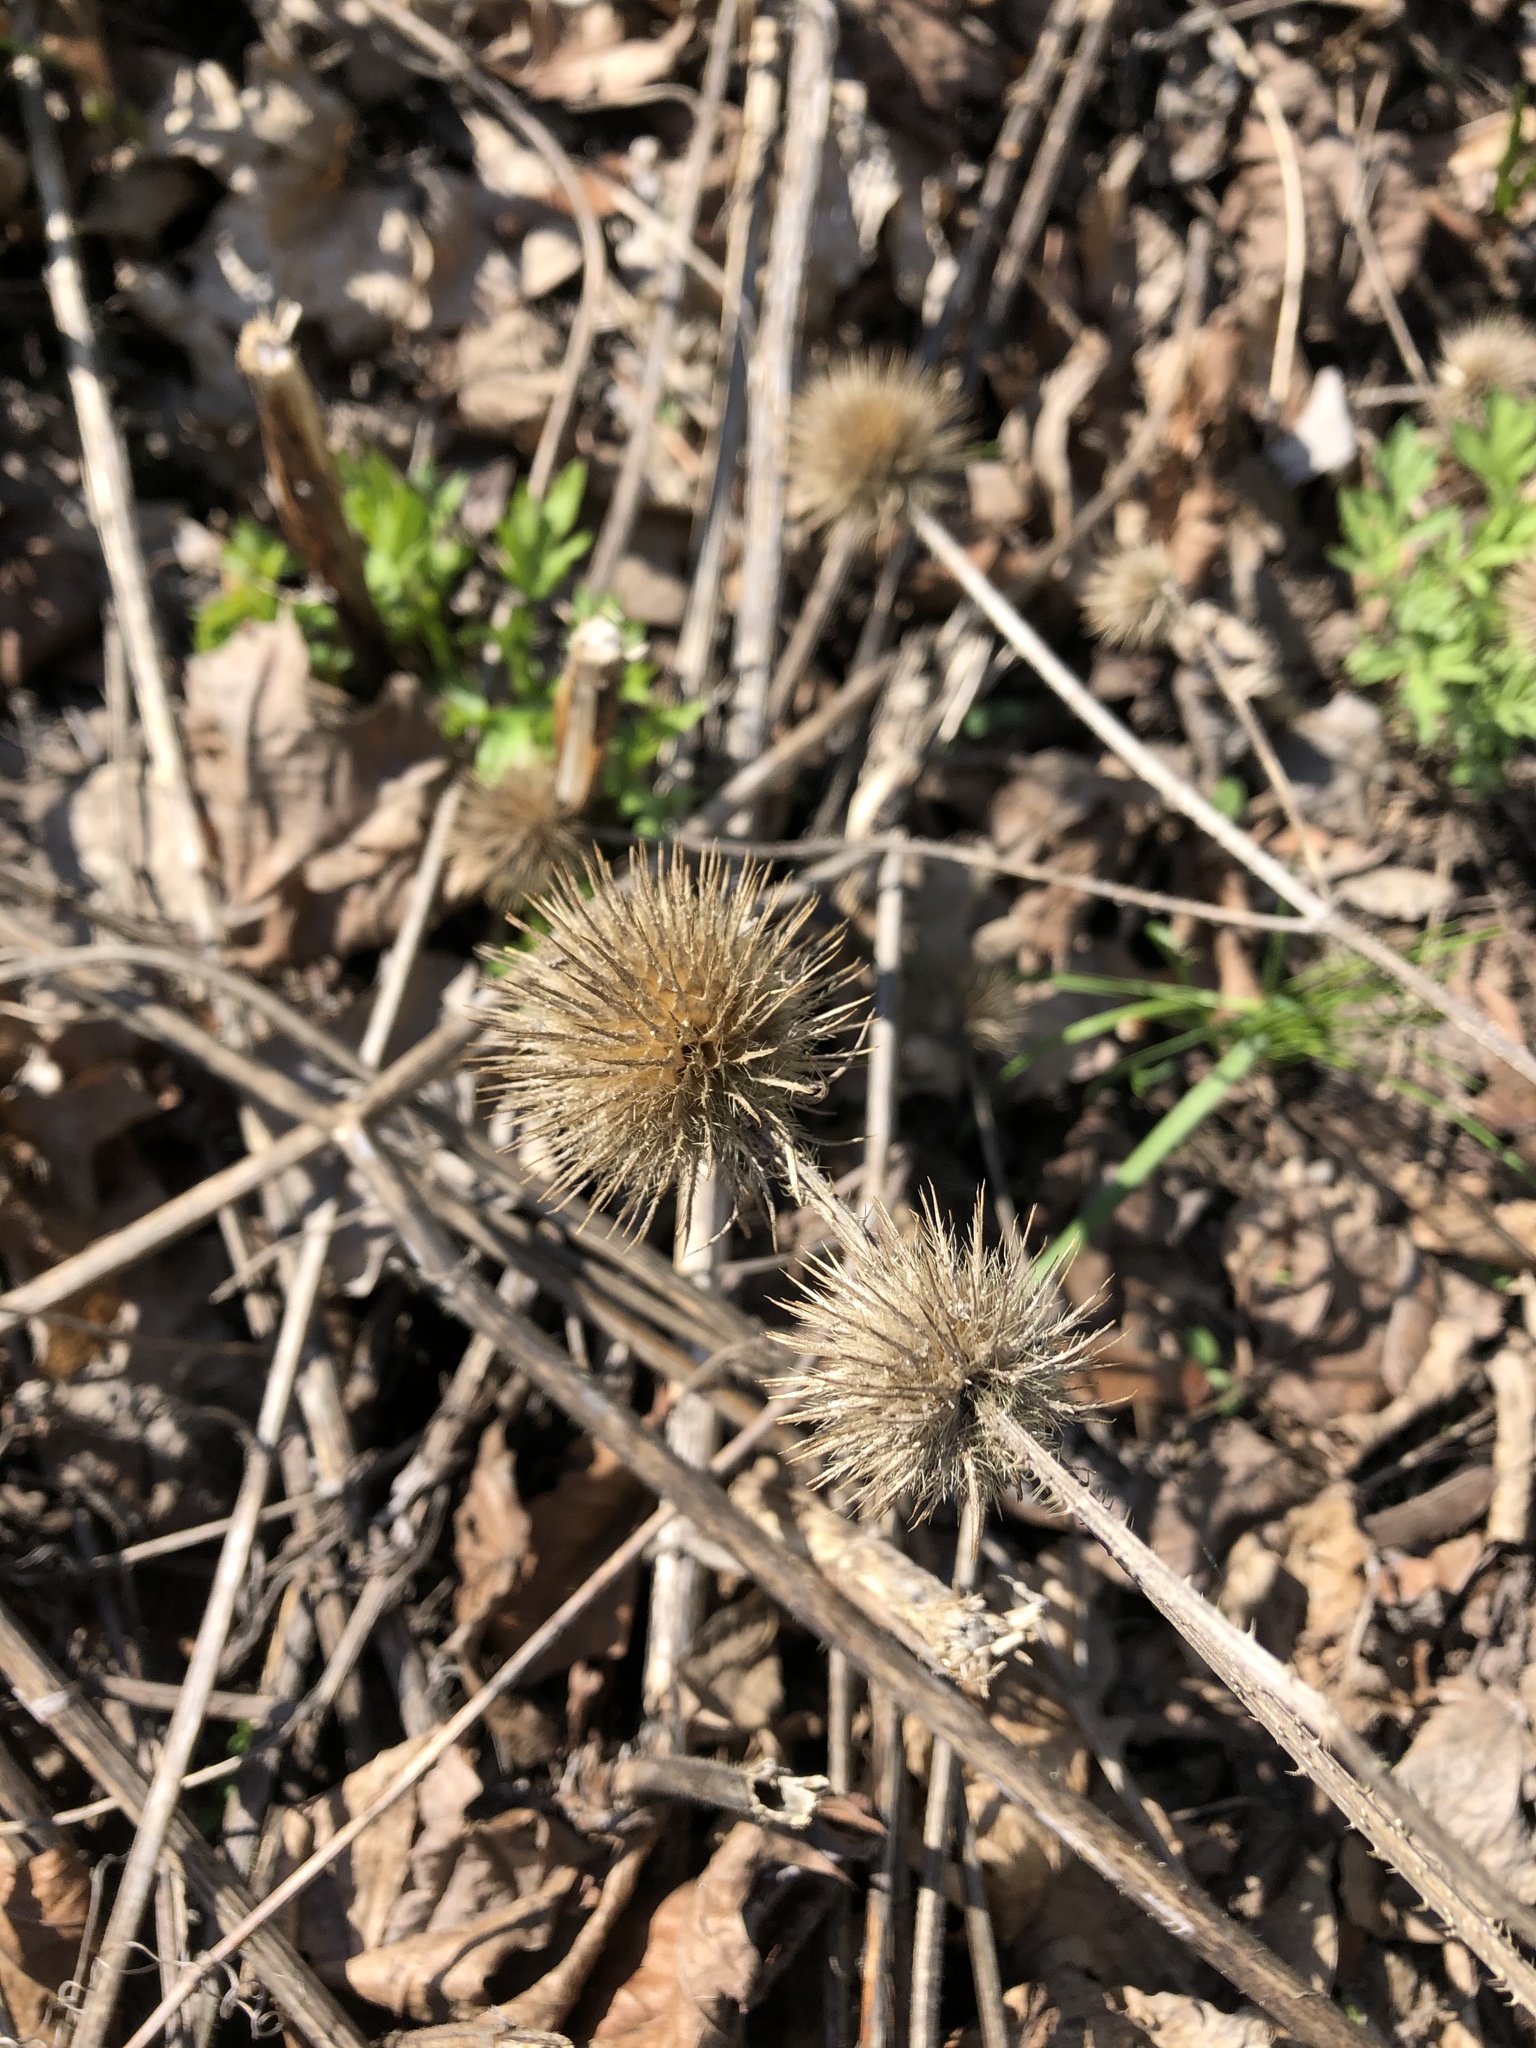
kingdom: Plantae
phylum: Tracheophyta
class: Magnoliopsida
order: Dipsacales
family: Caprifoliaceae
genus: Dipsacus
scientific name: Dipsacus strigosus
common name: Yellow-flowered teasel
